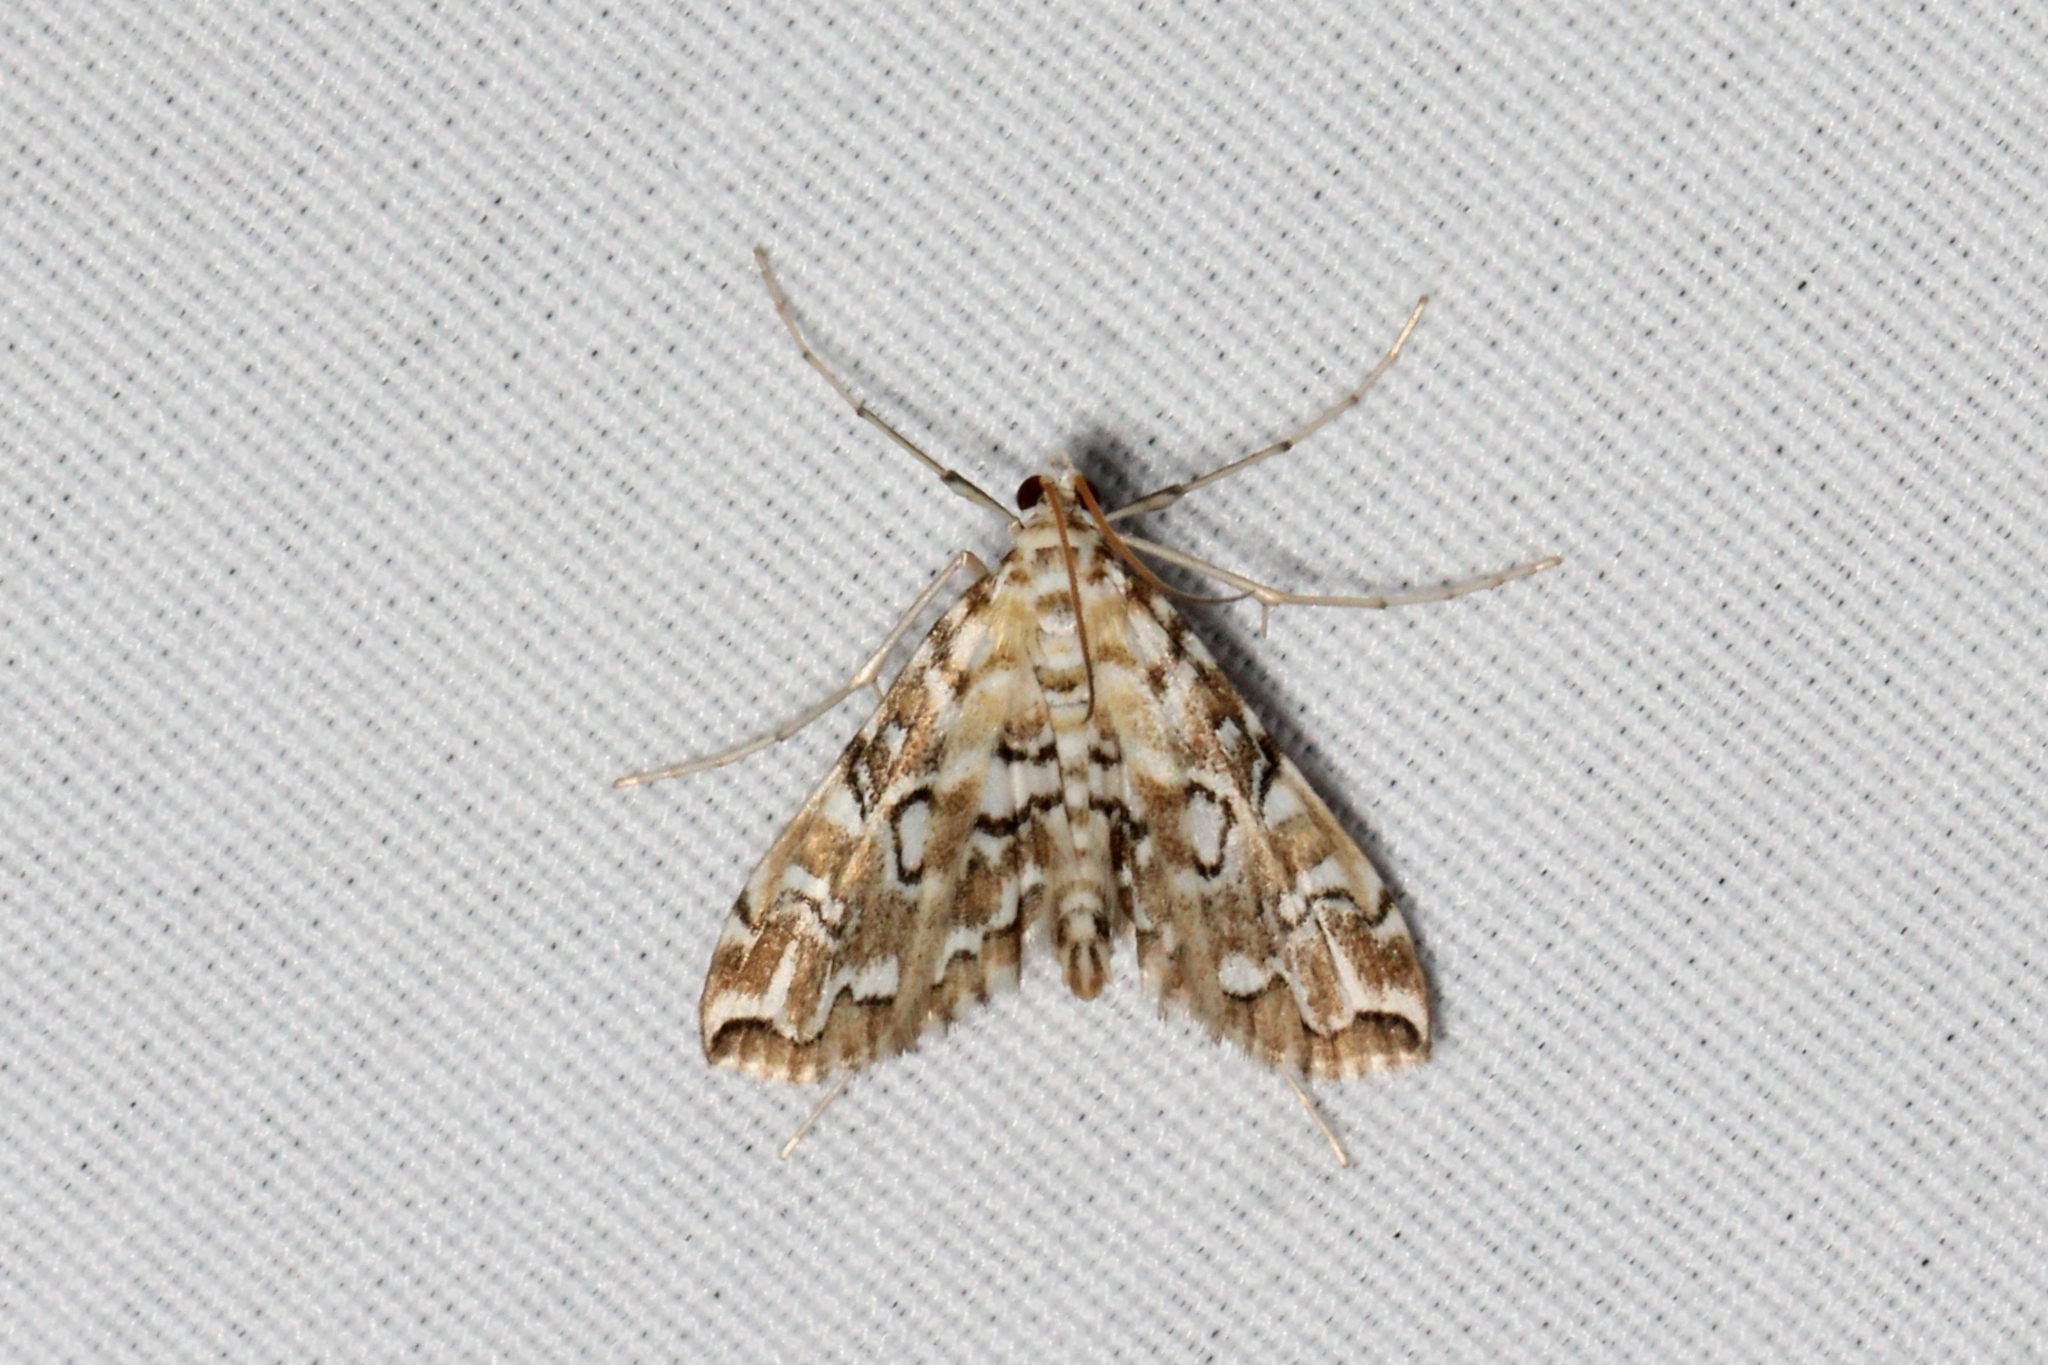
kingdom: Animalia
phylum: Arthropoda
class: Insecta
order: Lepidoptera
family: Crambidae
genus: Elophila
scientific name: Elophila icciusalis
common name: Pondside pyralid moth
